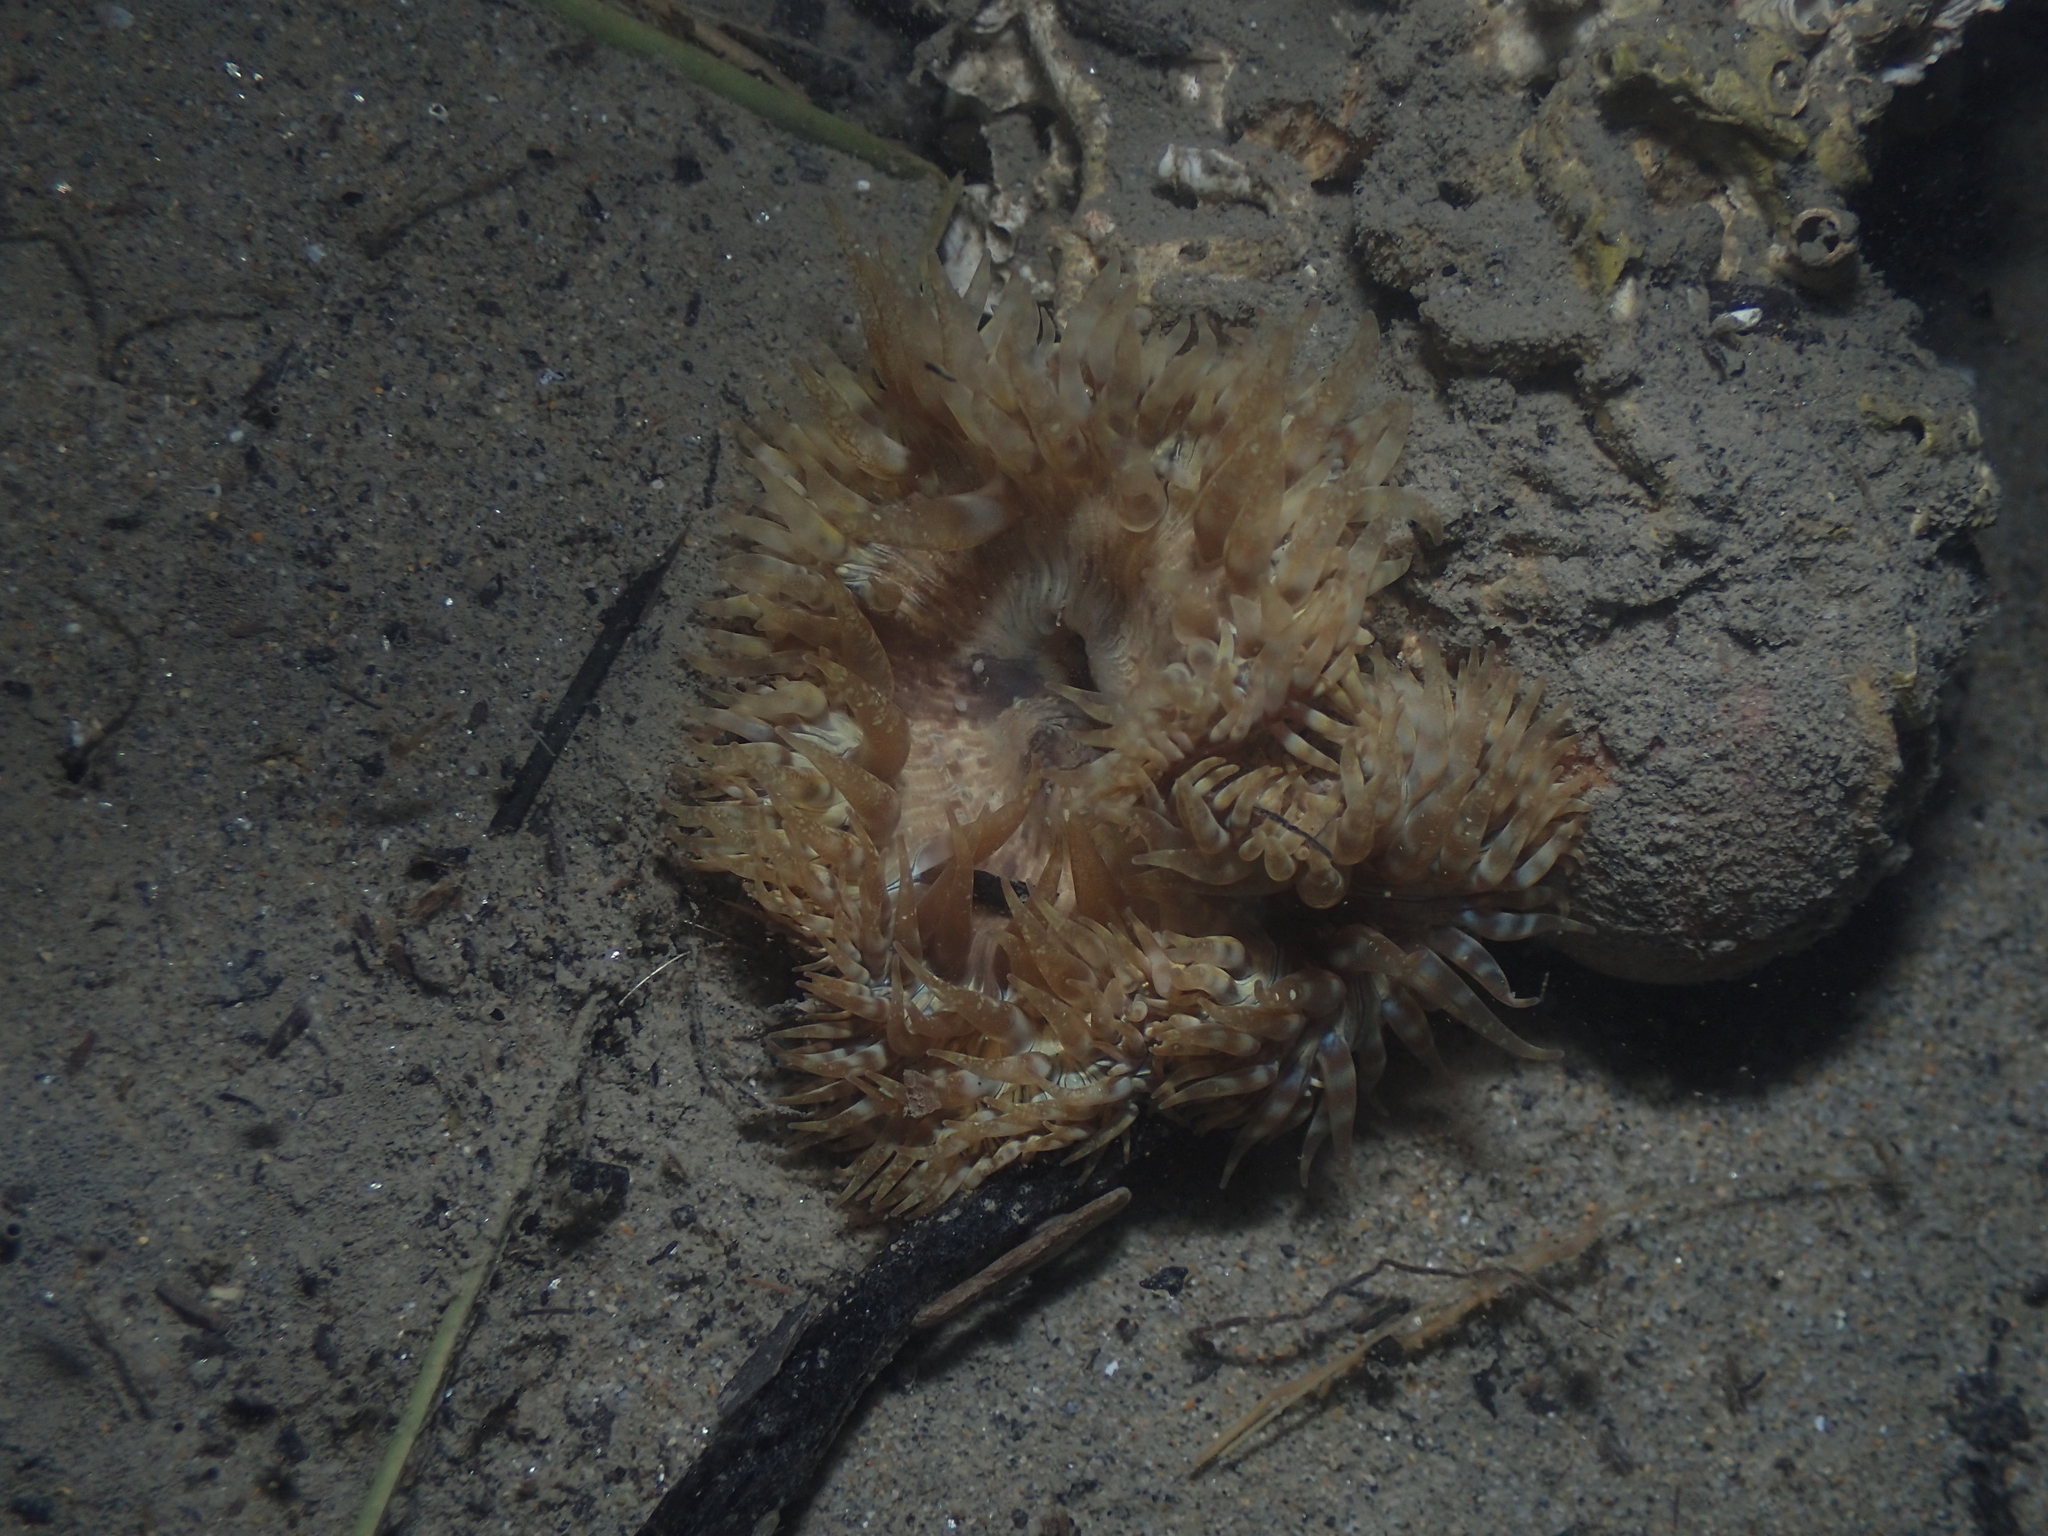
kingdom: Animalia
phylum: Cnidaria
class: Anthozoa
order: Actiniaria
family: Sagartiidae
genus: Cereus
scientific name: Cereus pedunculatus
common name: Daisy anemone
